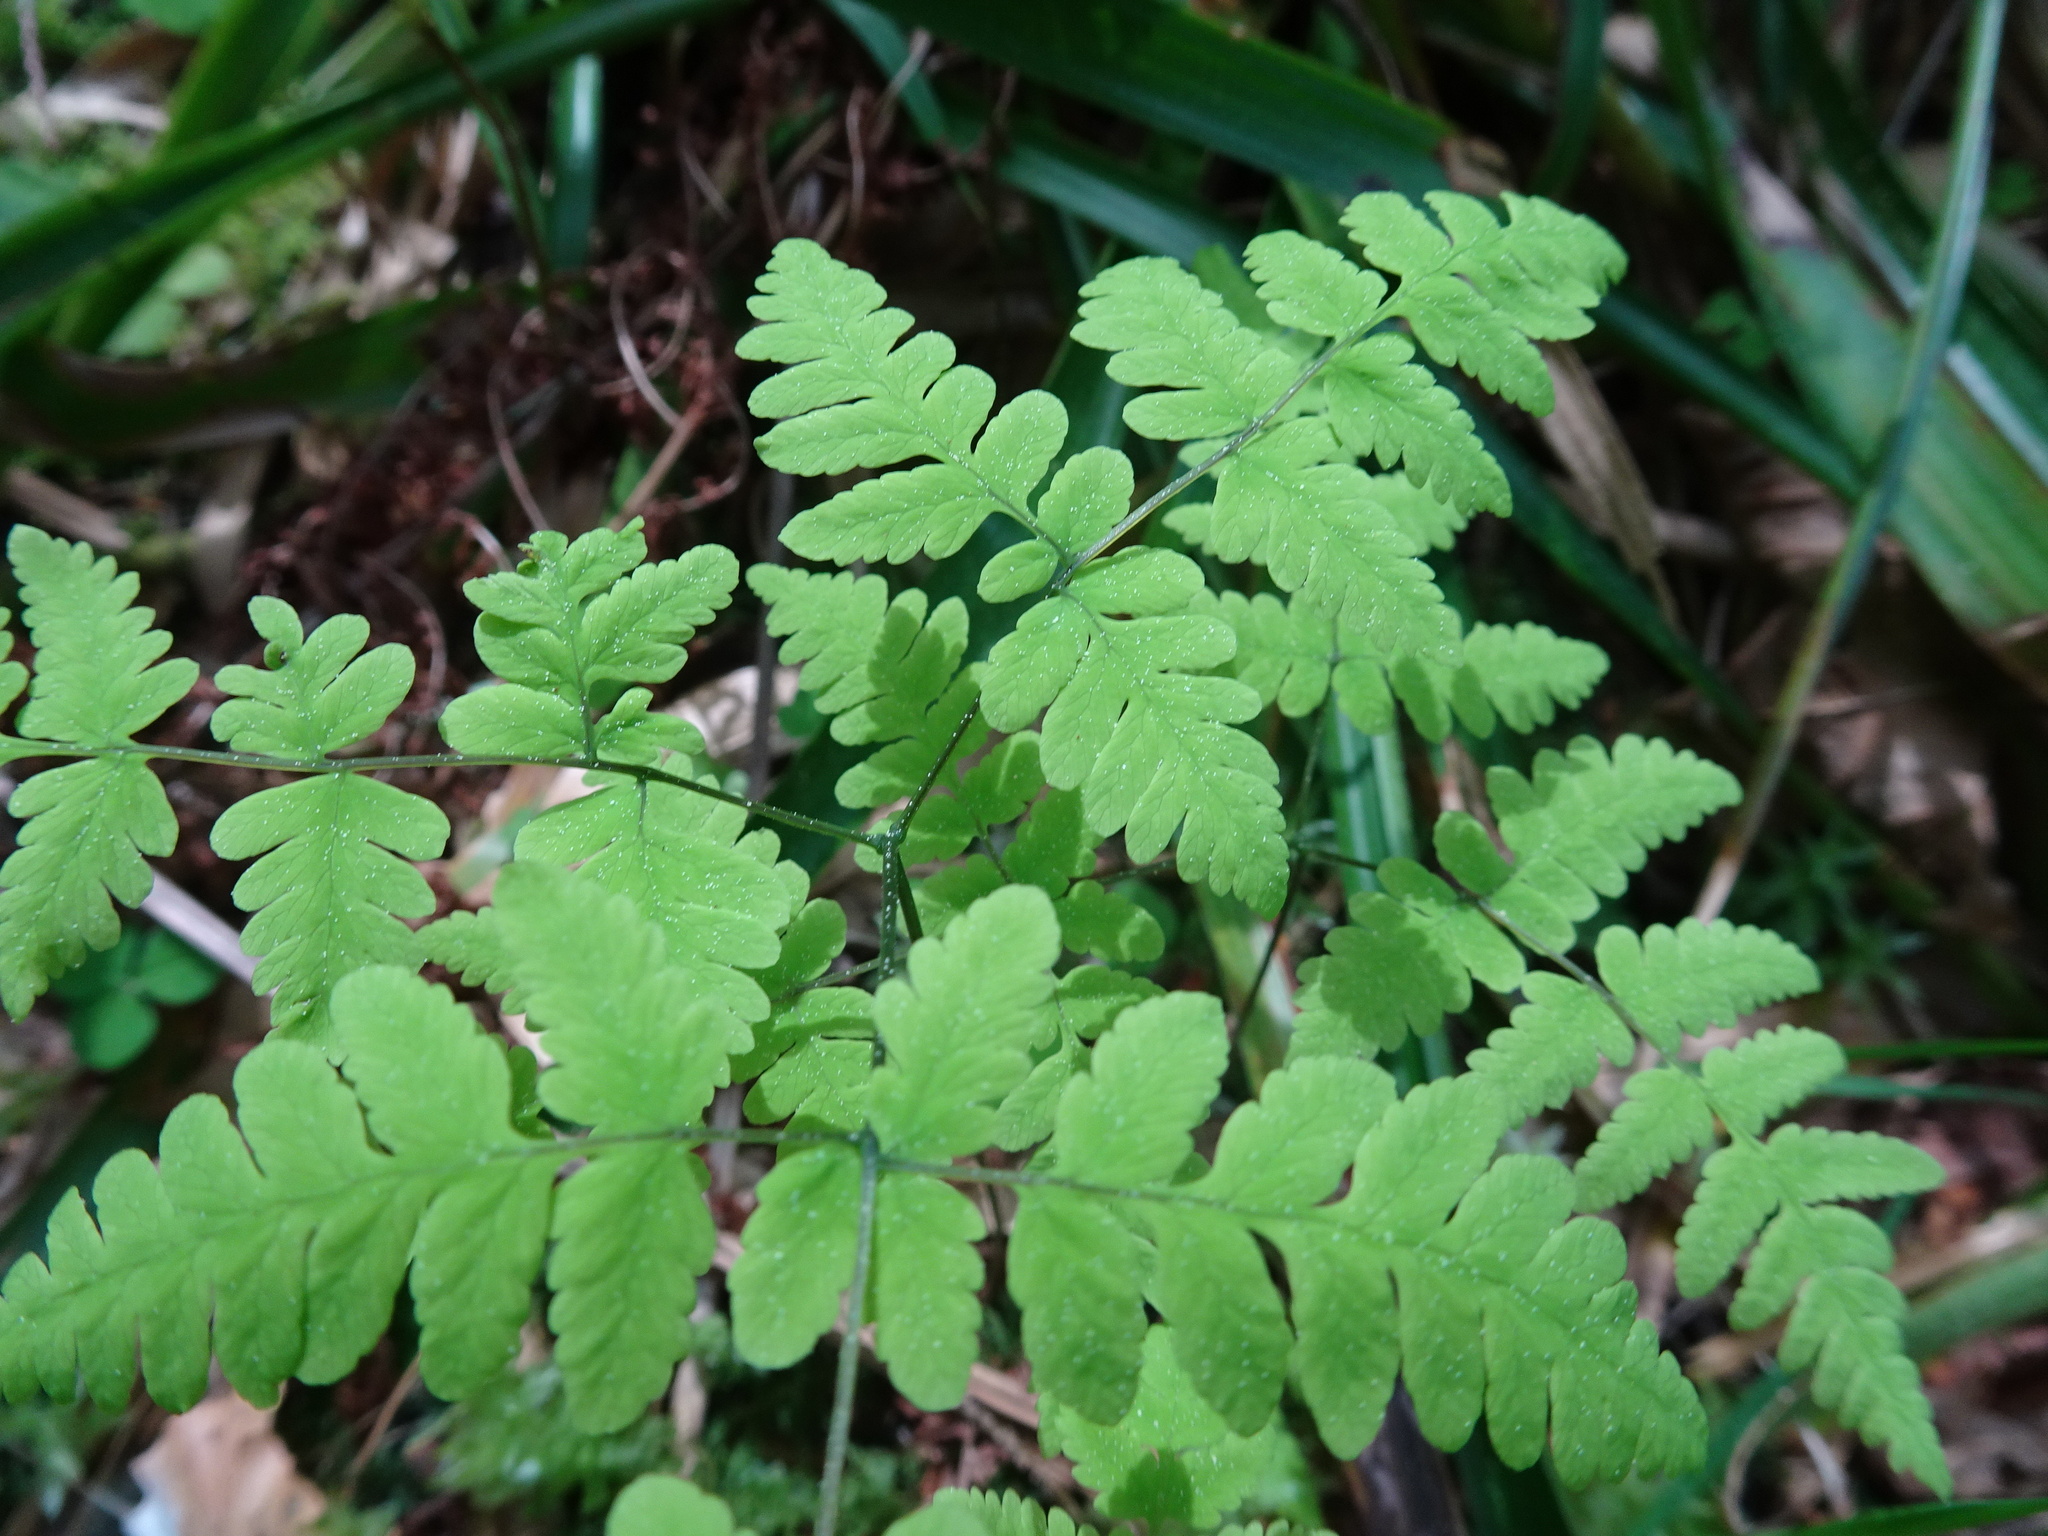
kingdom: Plantae
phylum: Tracheophyta
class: Polypodiopsida
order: Polypodiales
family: Cystopteridaceae
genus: Gymnocarpium
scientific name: Gymnocarpium dryopteris
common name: Oak fern
